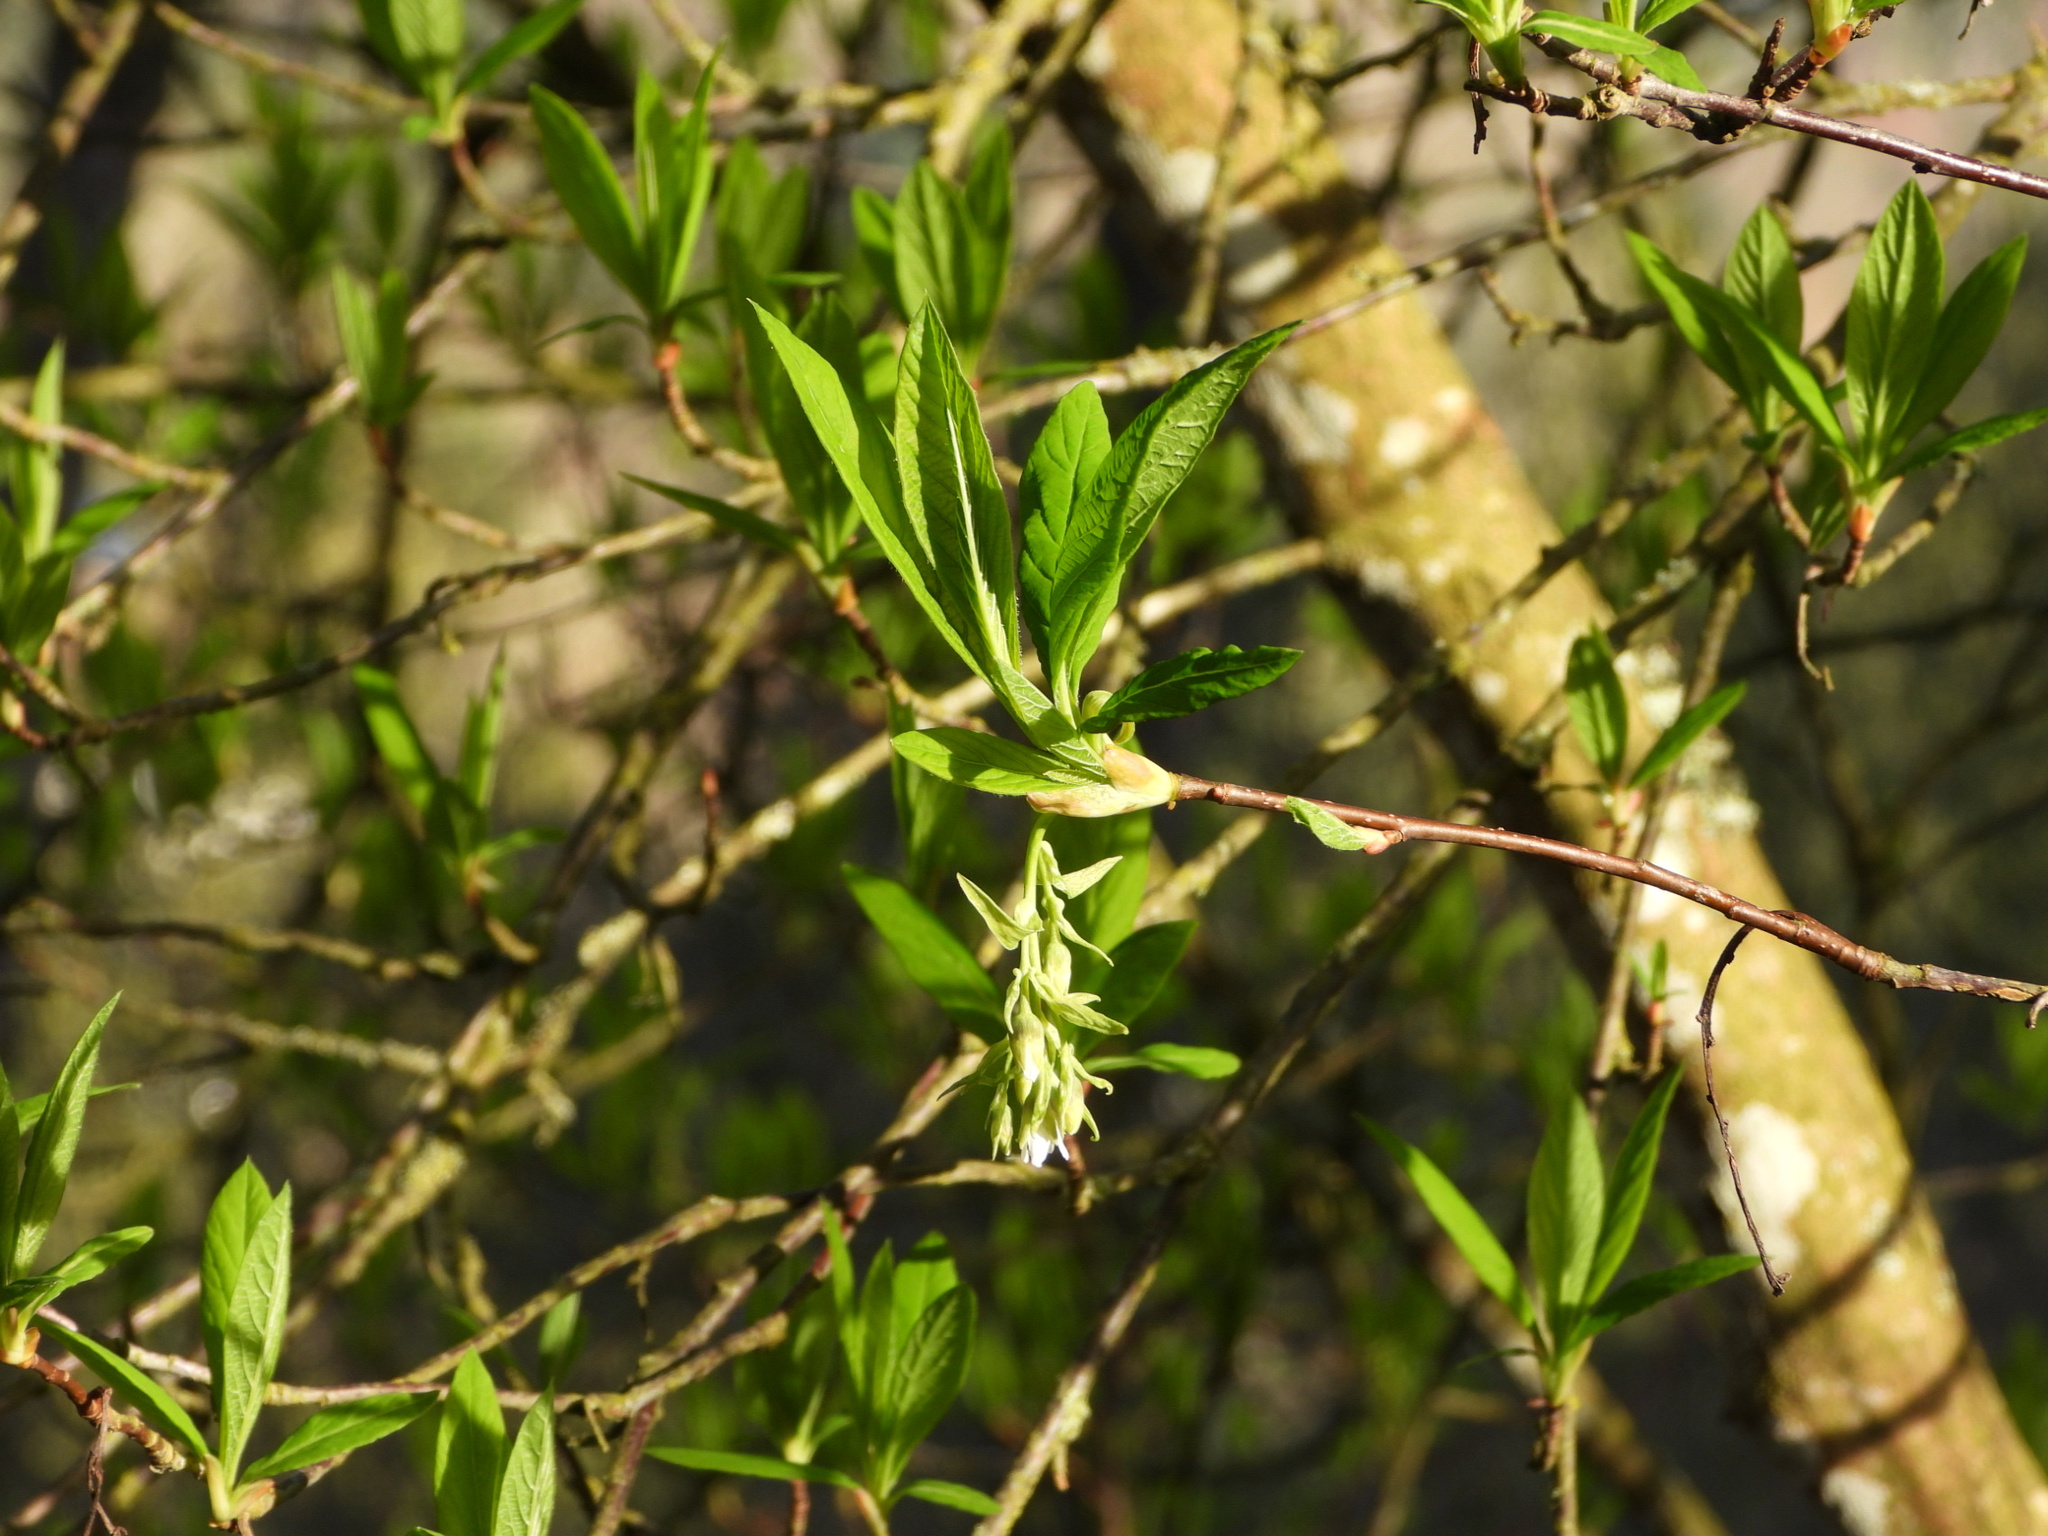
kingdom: Plantae
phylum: Tracheophyta
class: Magnoliopsida
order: Rosales
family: Rosaceae
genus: Oemleria
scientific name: Oemleria cerasiformis
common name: Osoberry
